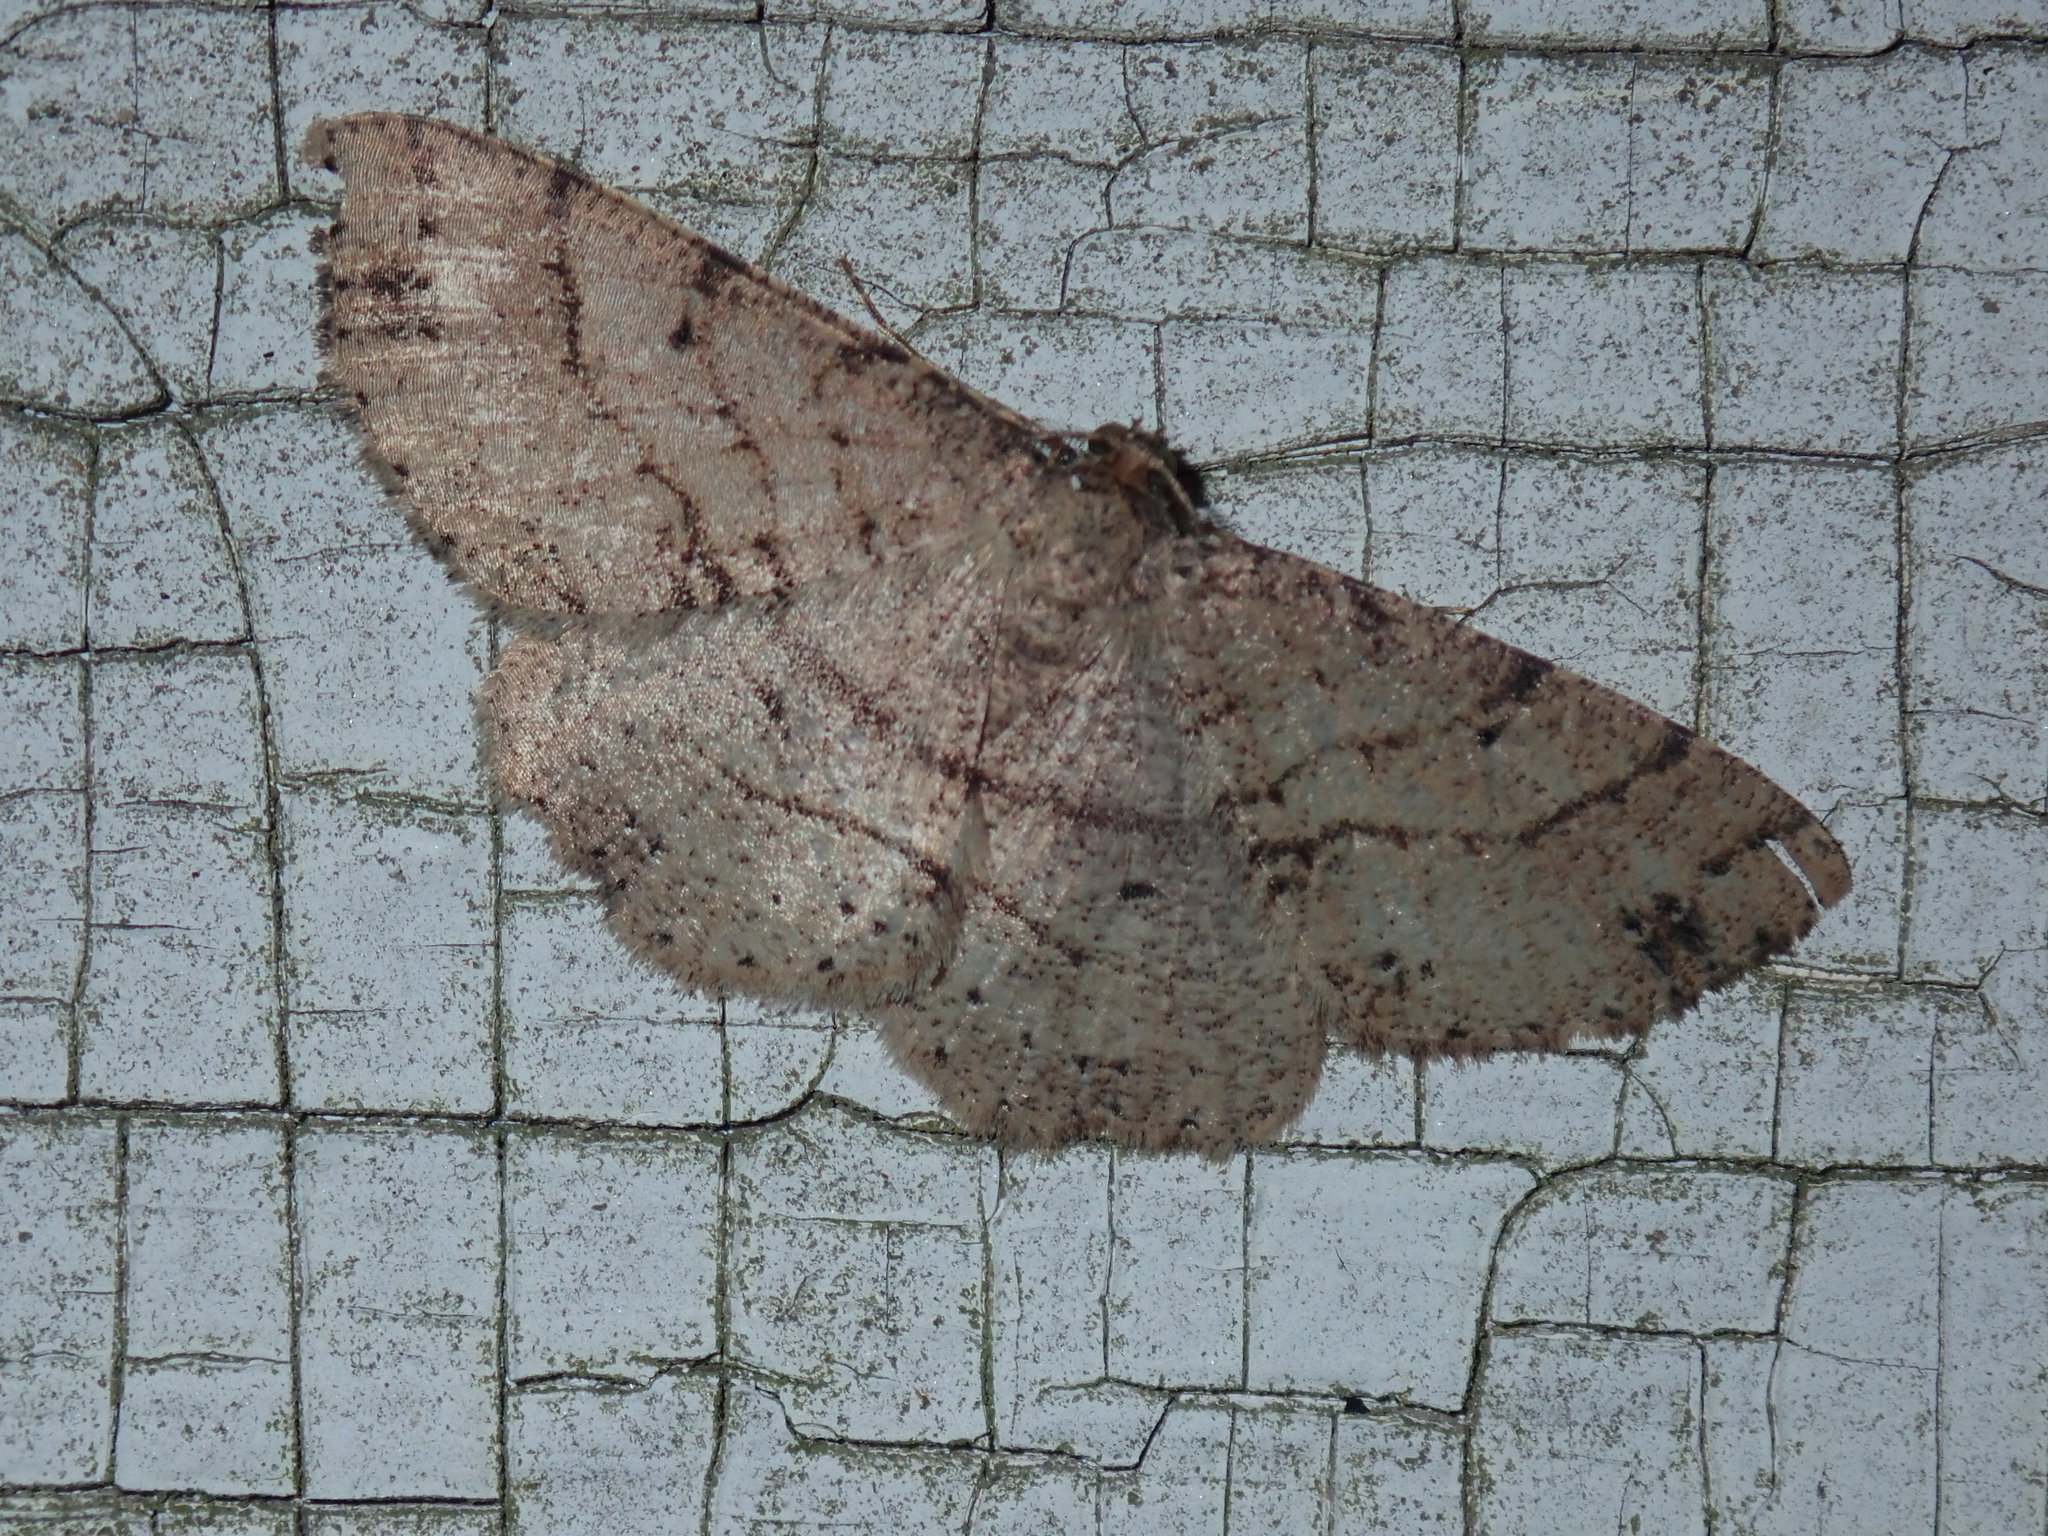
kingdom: Animalia
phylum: Arthropoda
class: Insecta
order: Lepidoptera
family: Geometridae
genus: Melanolophia
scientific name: Melanolophia signataria
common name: Signate melanolophia
